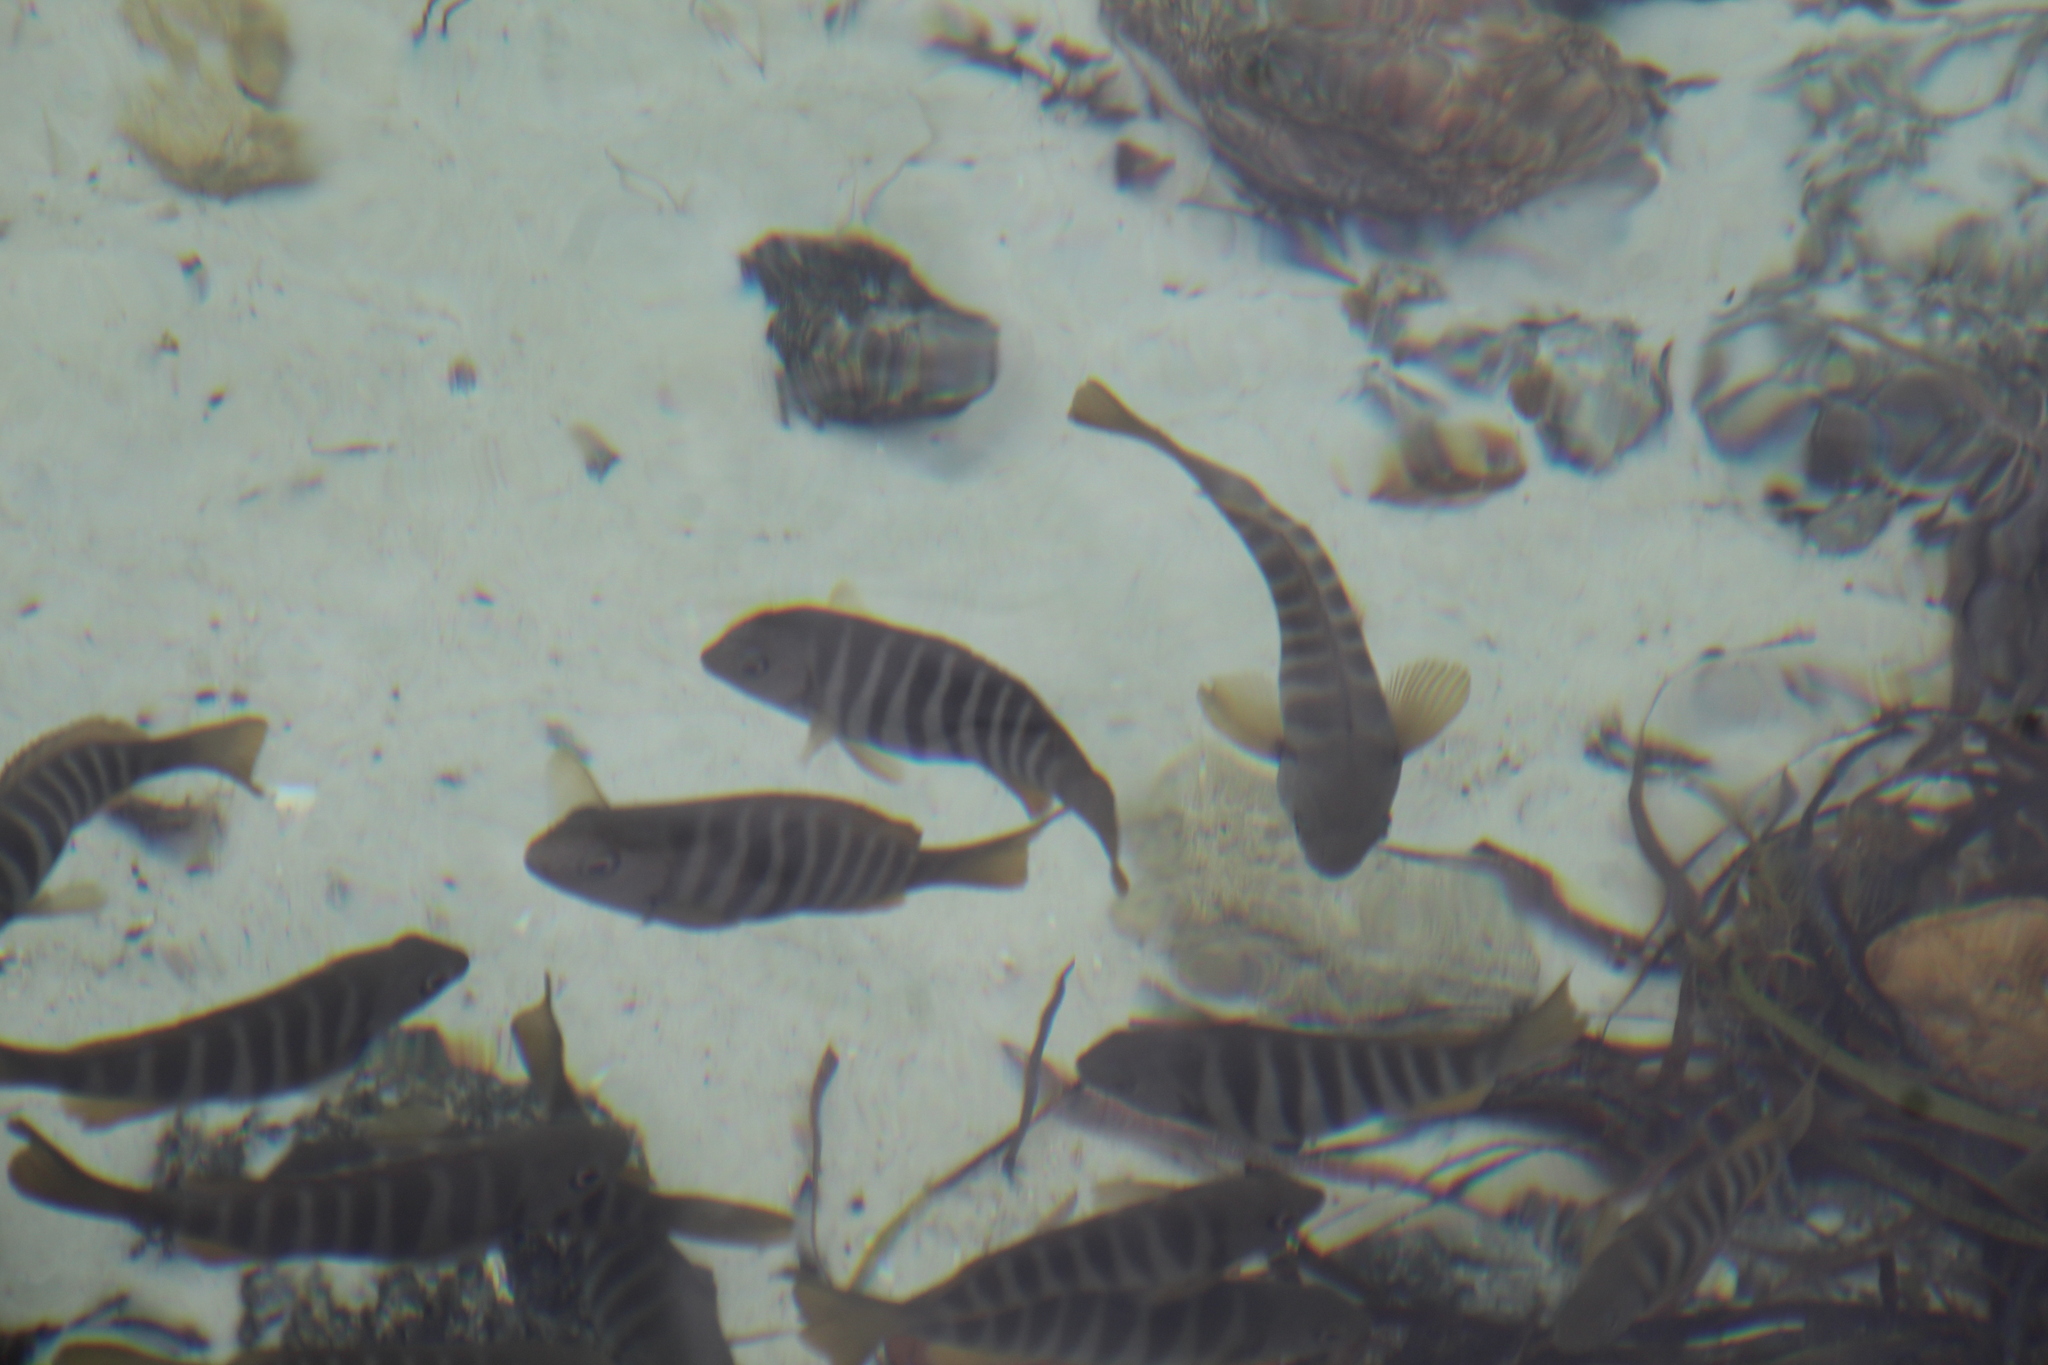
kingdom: Animalia
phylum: Chordata
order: Perciformes
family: Kyphosidae
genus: Girella
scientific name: Girella zebra
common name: Stripey bream
